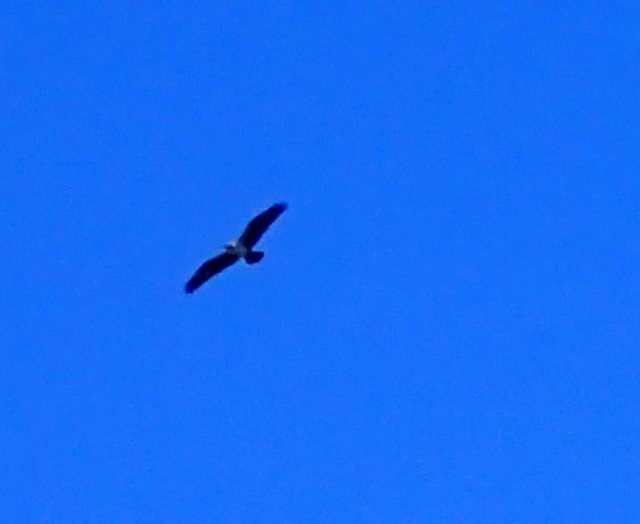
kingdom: Animalia
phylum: Chordata
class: Aves
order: Accipitriformes
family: Pandionidae
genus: Pandion
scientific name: Pandion haliaetus
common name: Osprey
